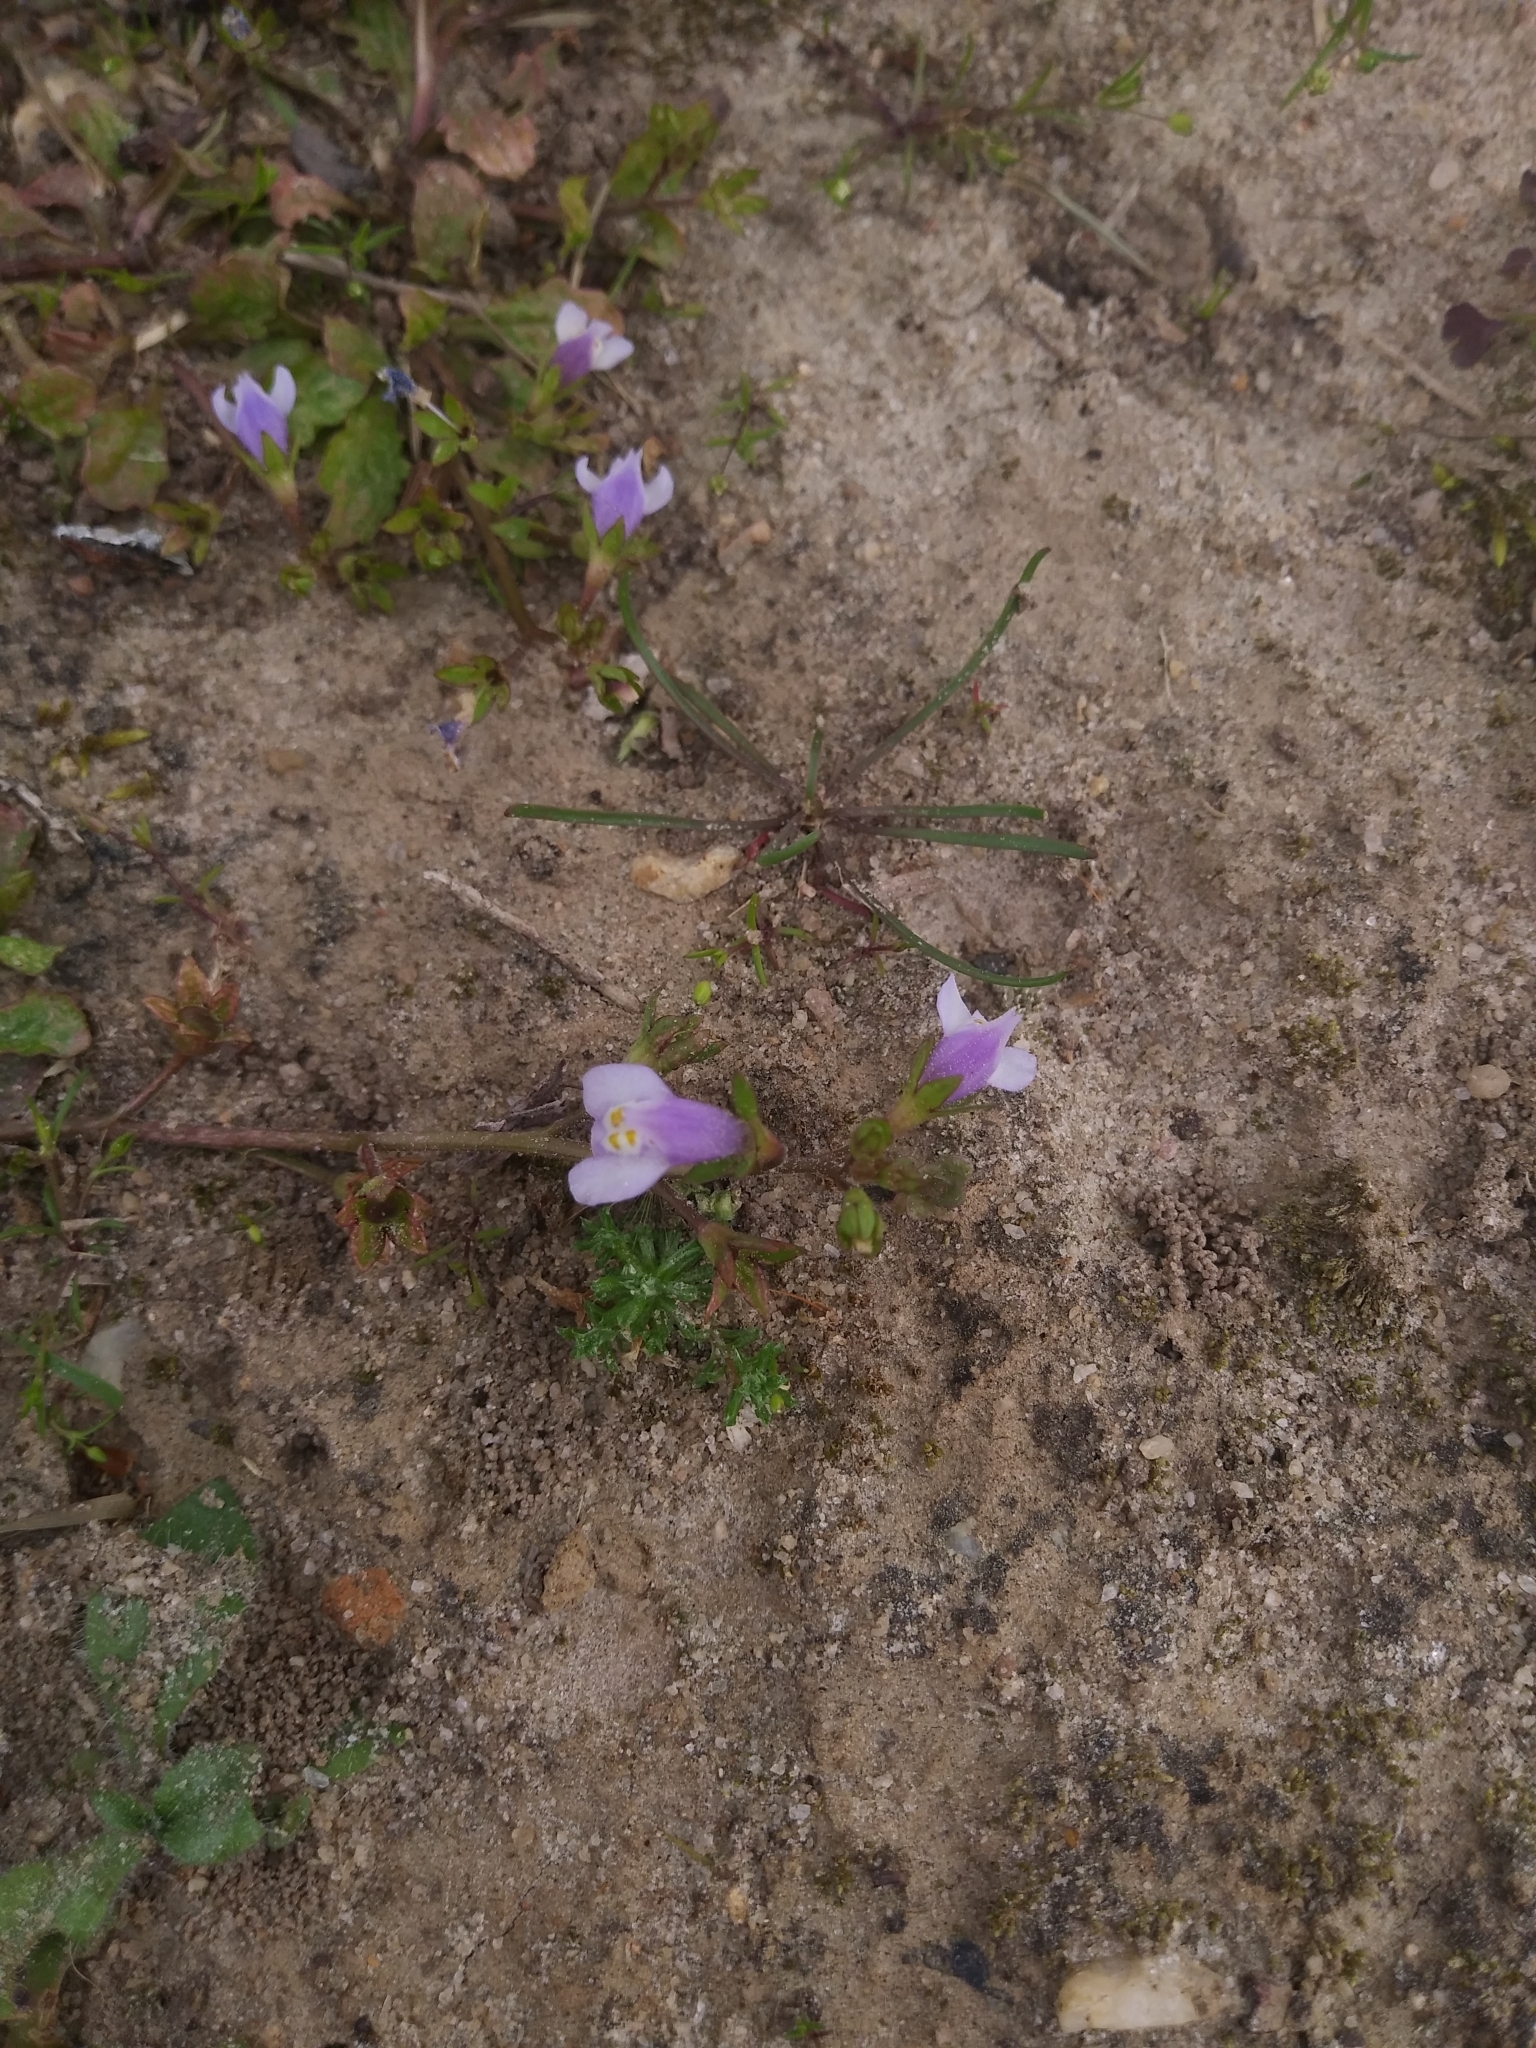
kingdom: Plantae
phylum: Tracheophyta
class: Magnoliopsida
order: Lamiales
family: Mazaceae
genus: Mazus
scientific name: Mazus pumilus
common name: Japanese mazus
